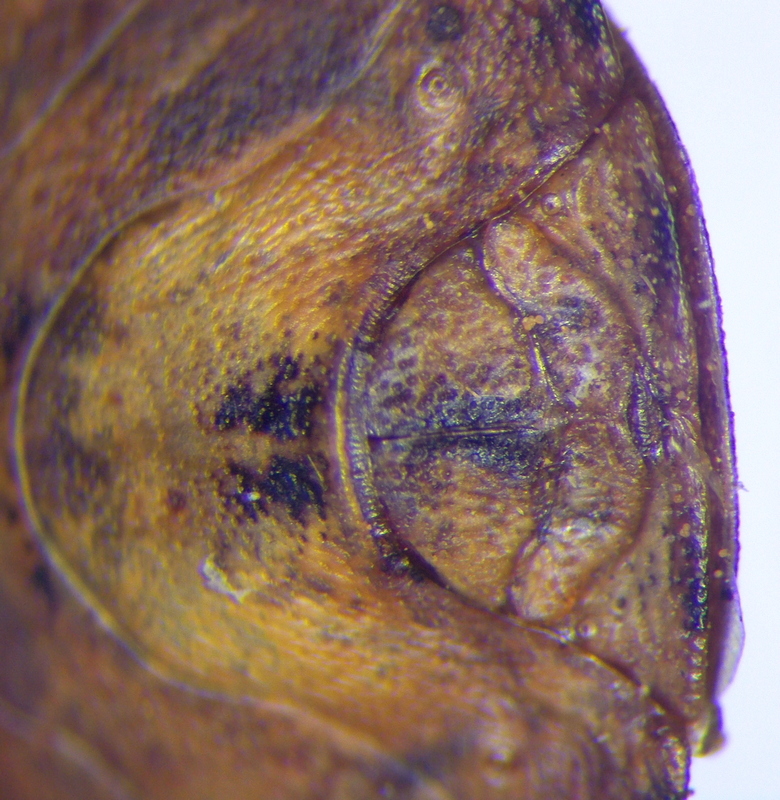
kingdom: Animalia
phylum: Arthropoda
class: Insecta
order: Hemiptera
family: Scutelleridae
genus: Eurygaster
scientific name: Eurygaster maura
